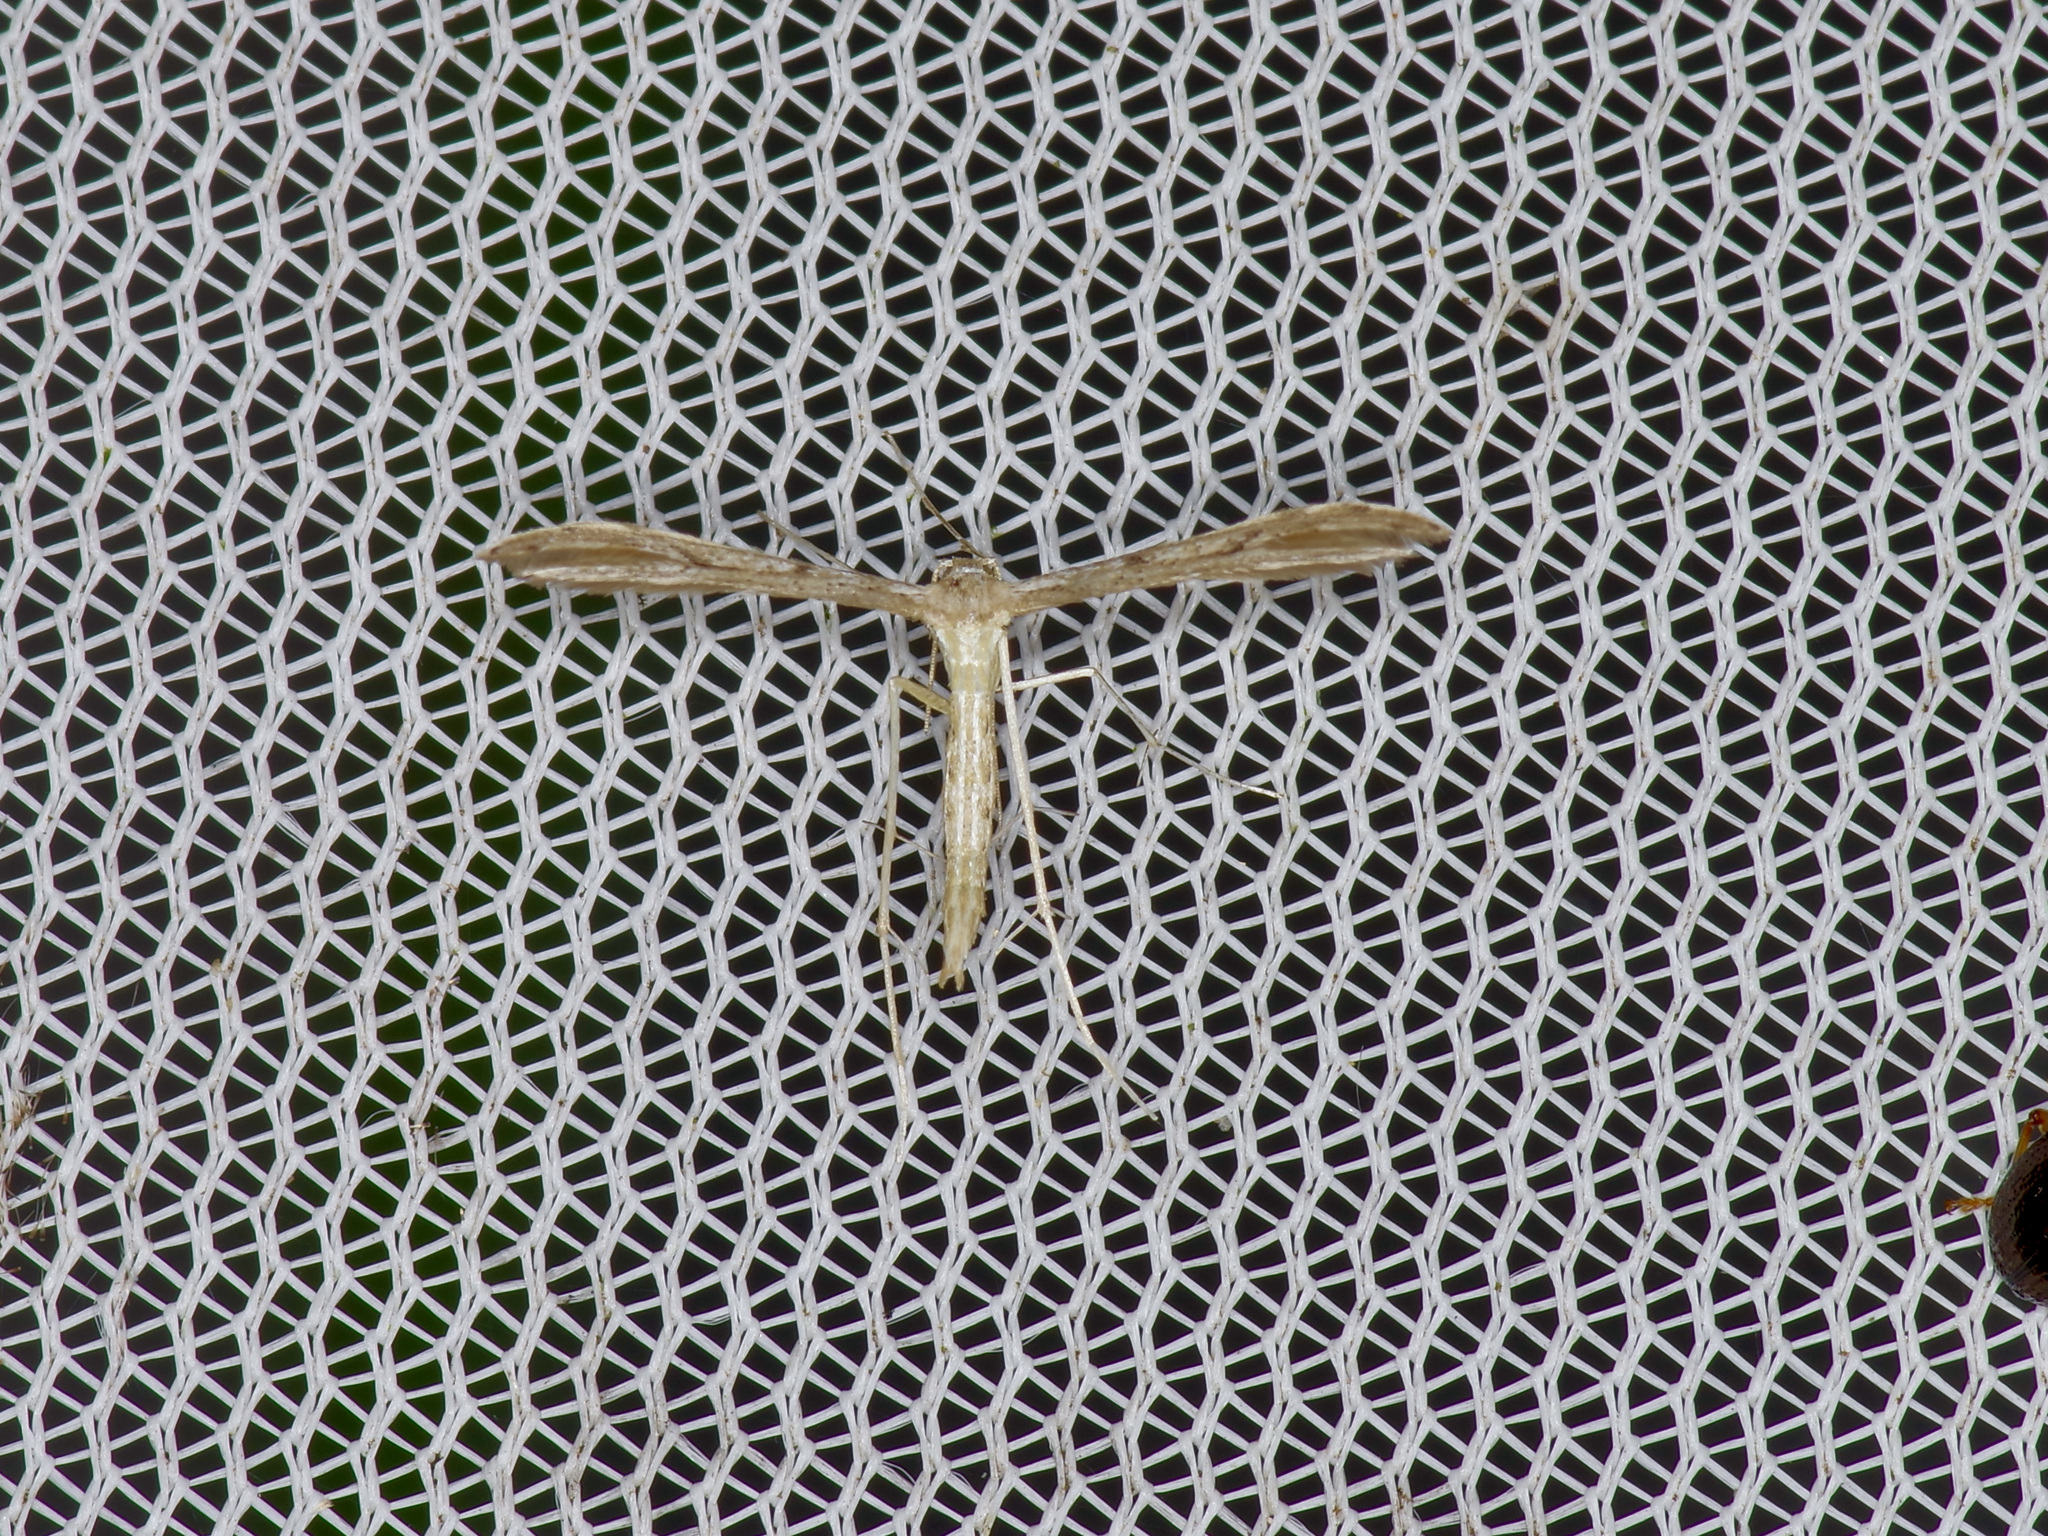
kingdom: Animalia
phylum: Arthropoda
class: Insecta
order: Lepidoptera
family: Pterophoridae
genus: Pselnophorus
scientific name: Pselnophorus belfragei
